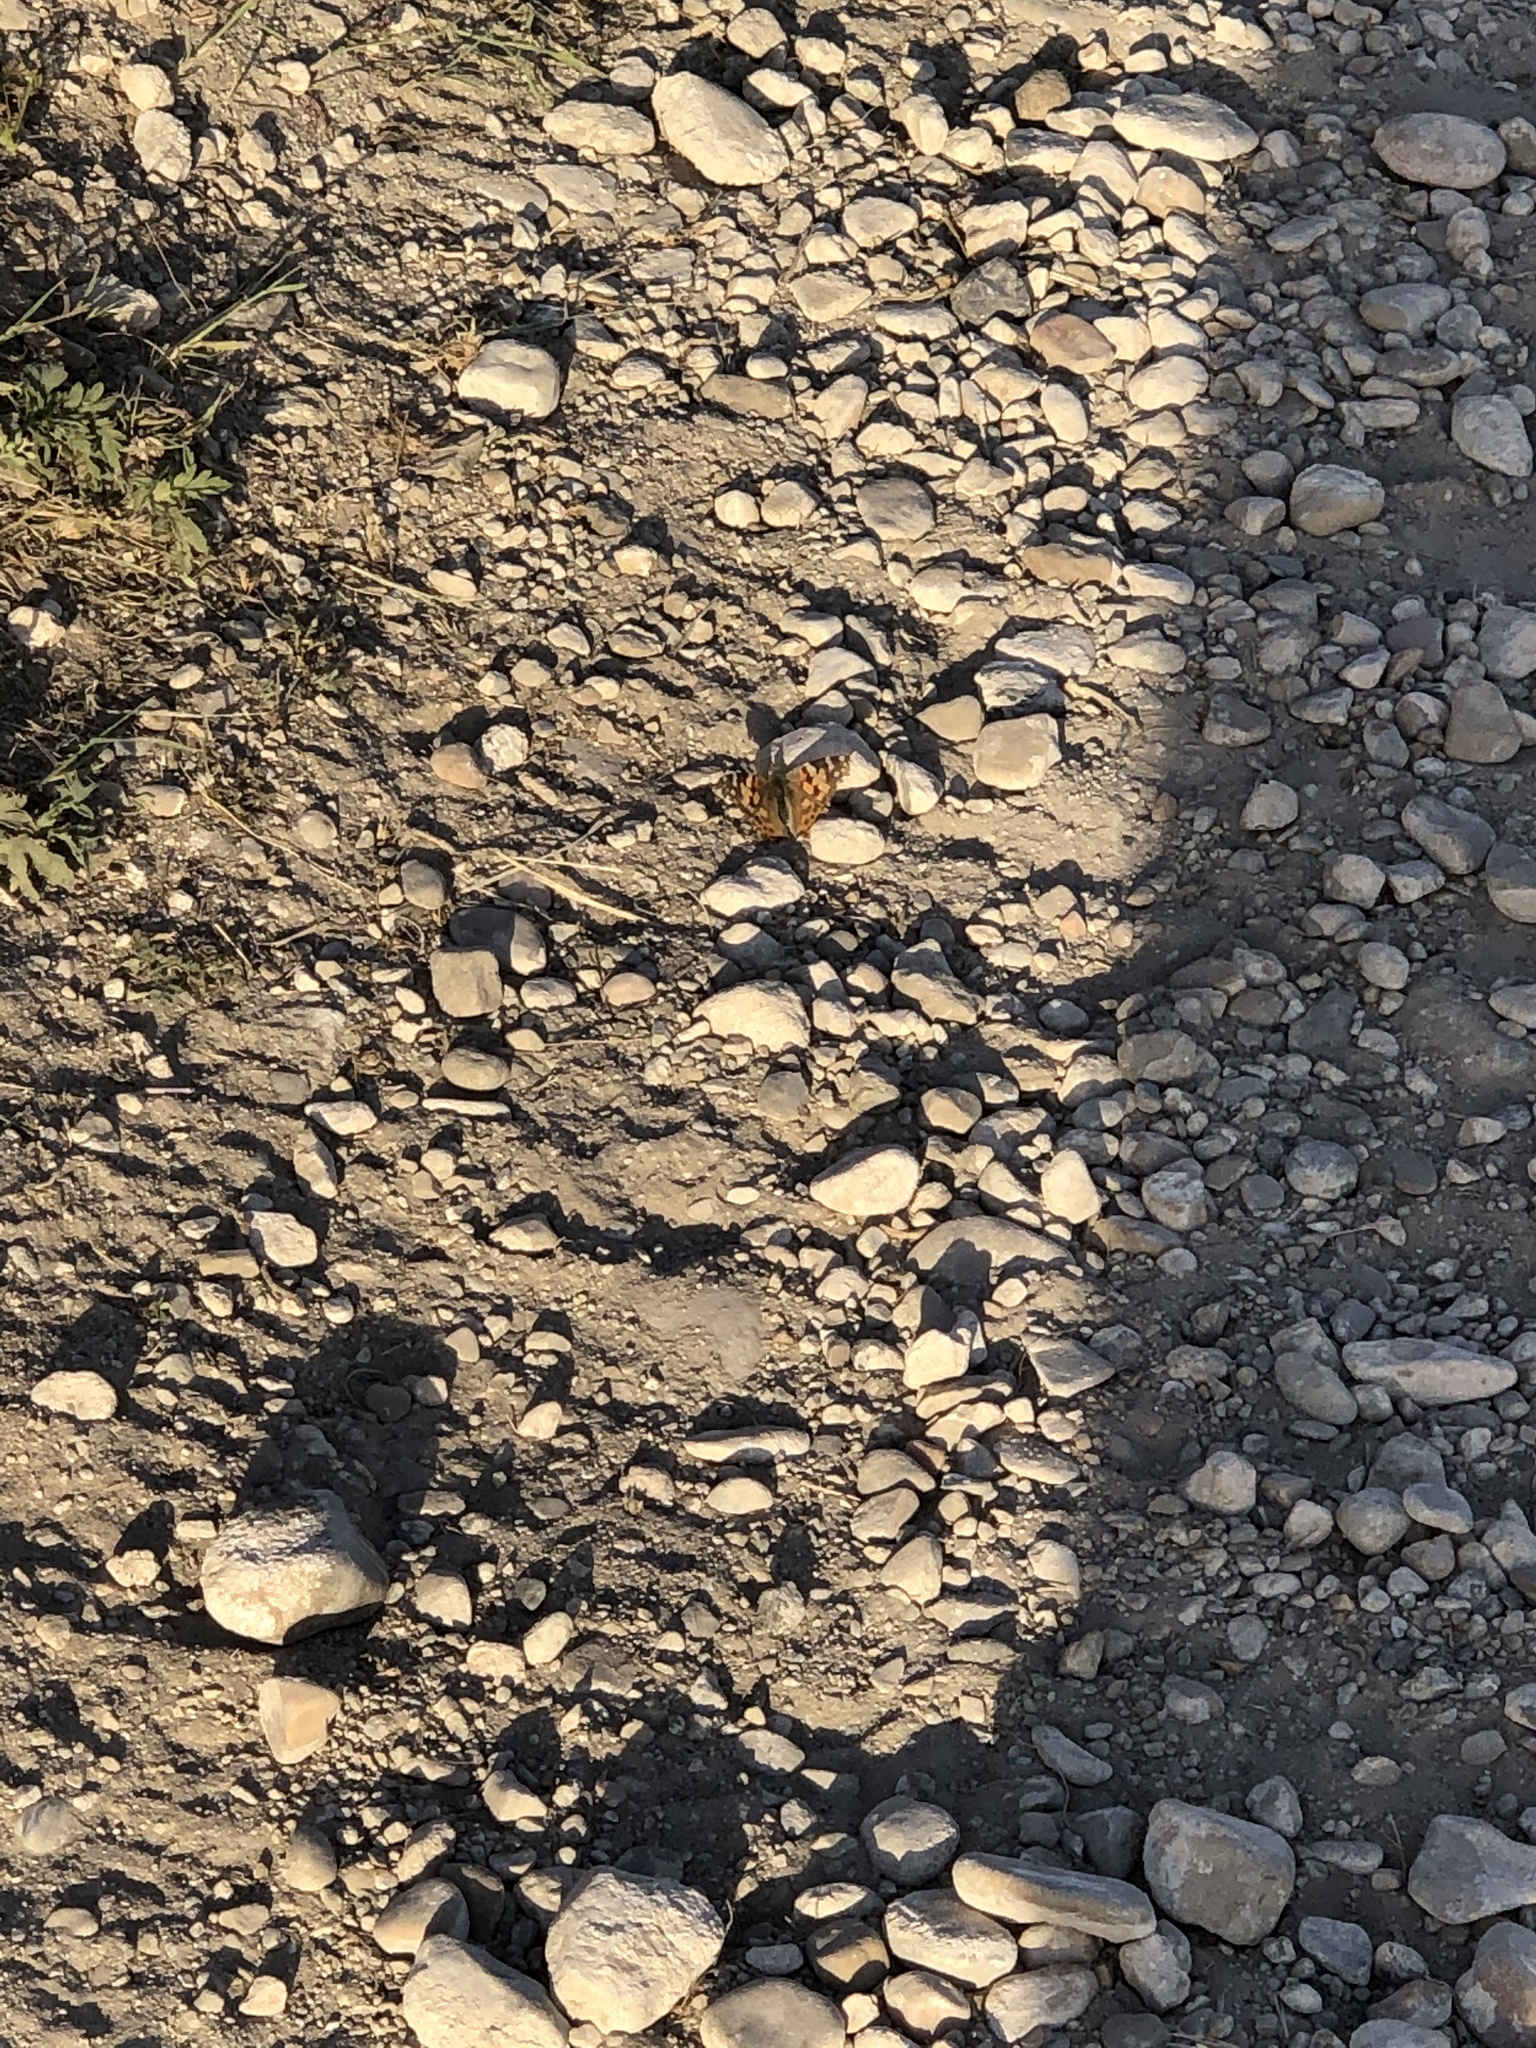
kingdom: Animalia
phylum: Arthropoda
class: Insecta
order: Lepidoptera
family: Nymphalidae
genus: Vanessa
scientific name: Vanessa cardui
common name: Painted lady
